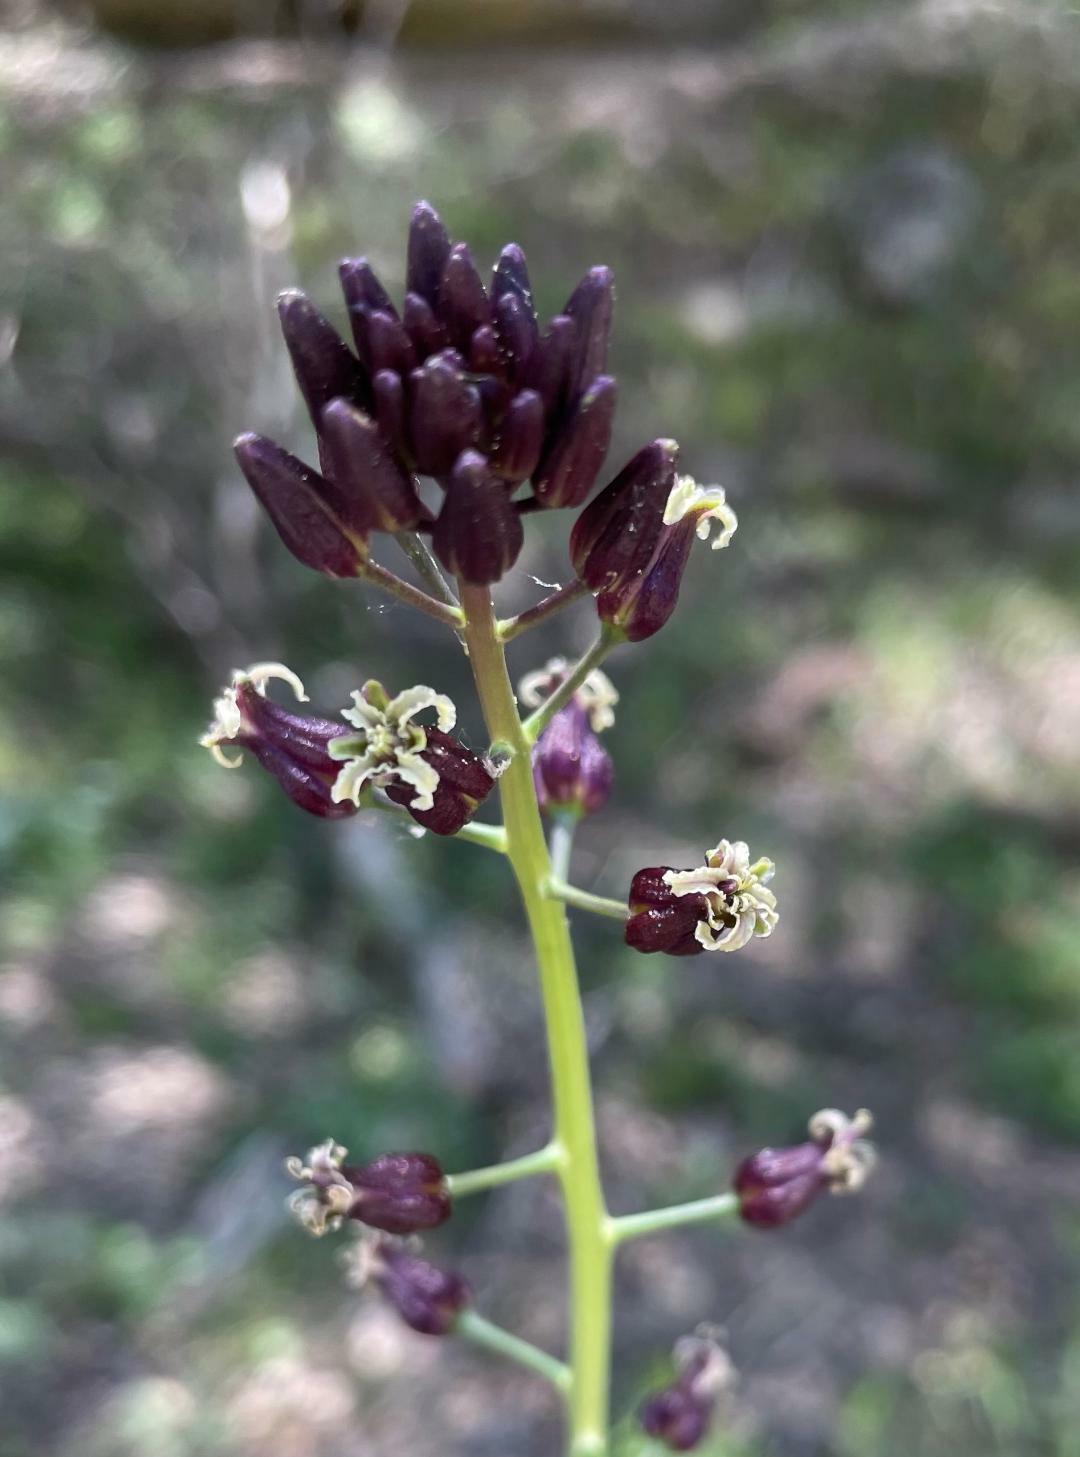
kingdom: Plantae
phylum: Tracheophyta
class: Magnoliopsida
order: Brassicales
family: Brassicaceae
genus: Streptanthus
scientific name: Streptanthus pilosus
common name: Chocolate drops
